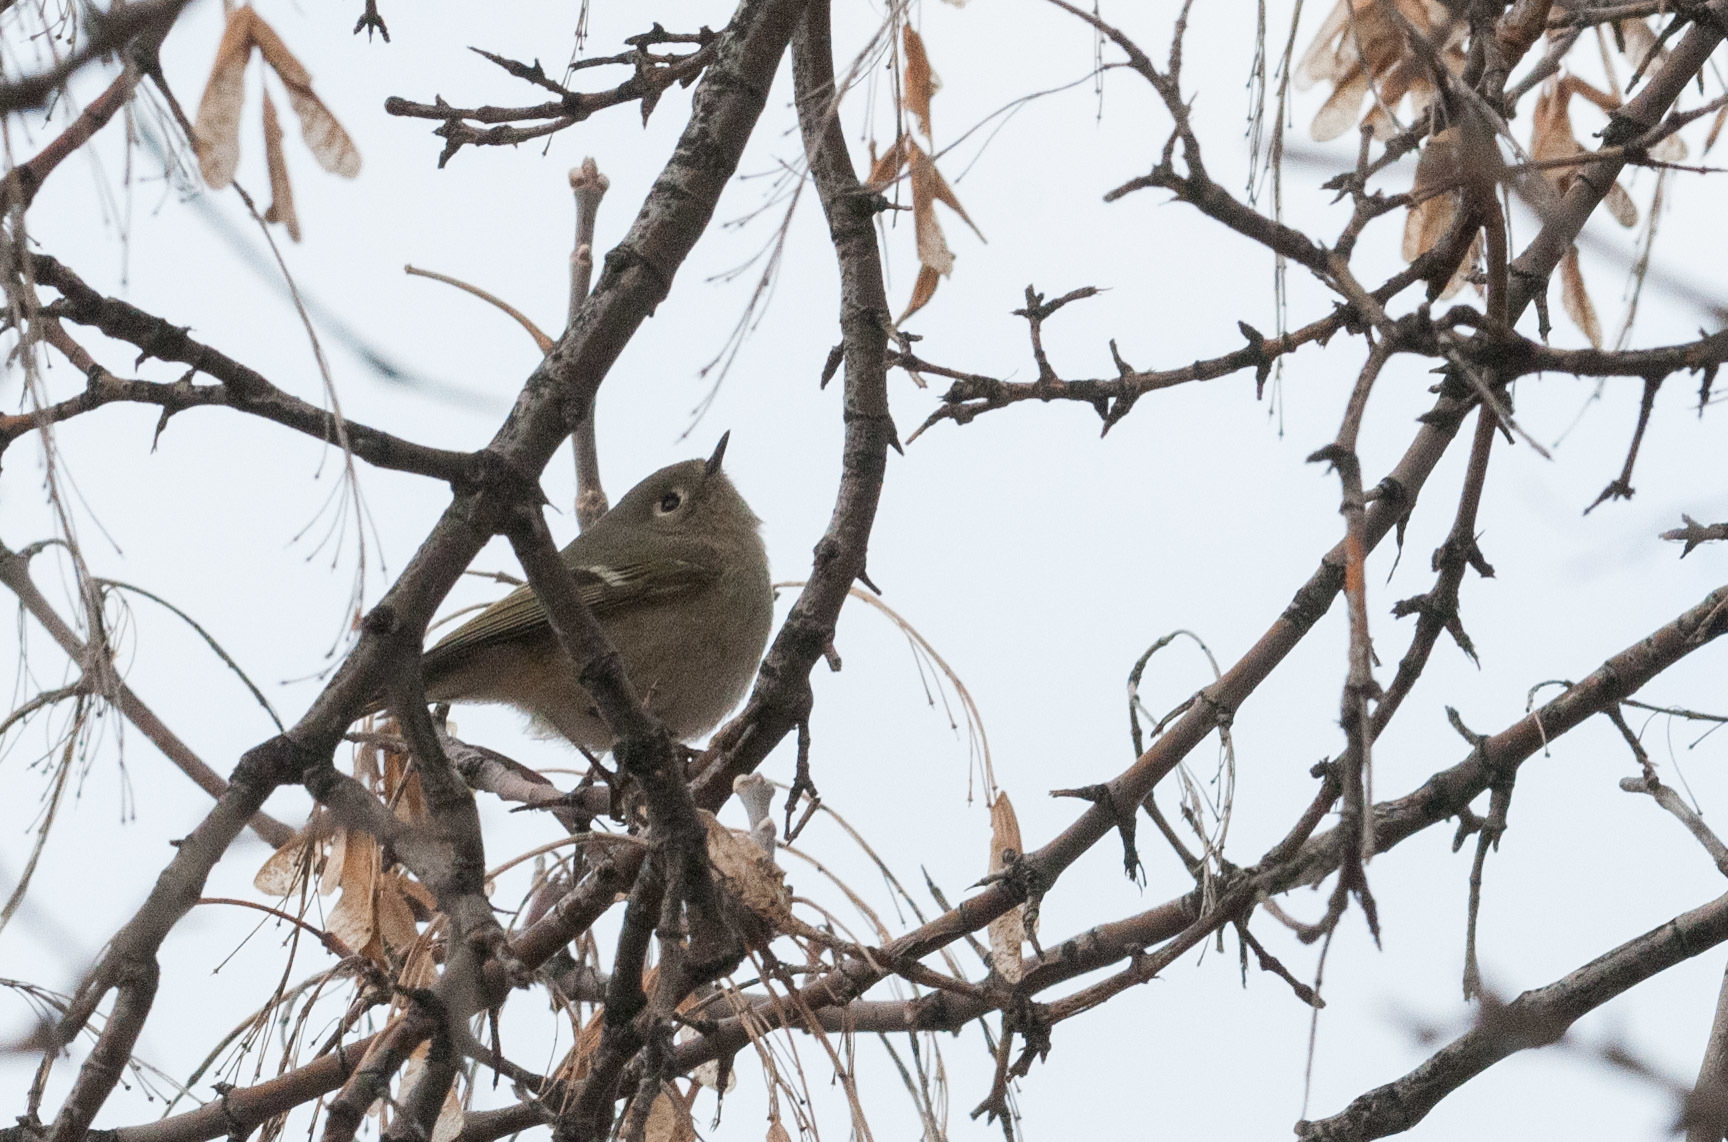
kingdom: Animalia
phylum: Chordata
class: Aves
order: Passeriformes
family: Regulidae
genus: Regulus
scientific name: Regulus calendula
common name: Ruby-crowned kinglet
